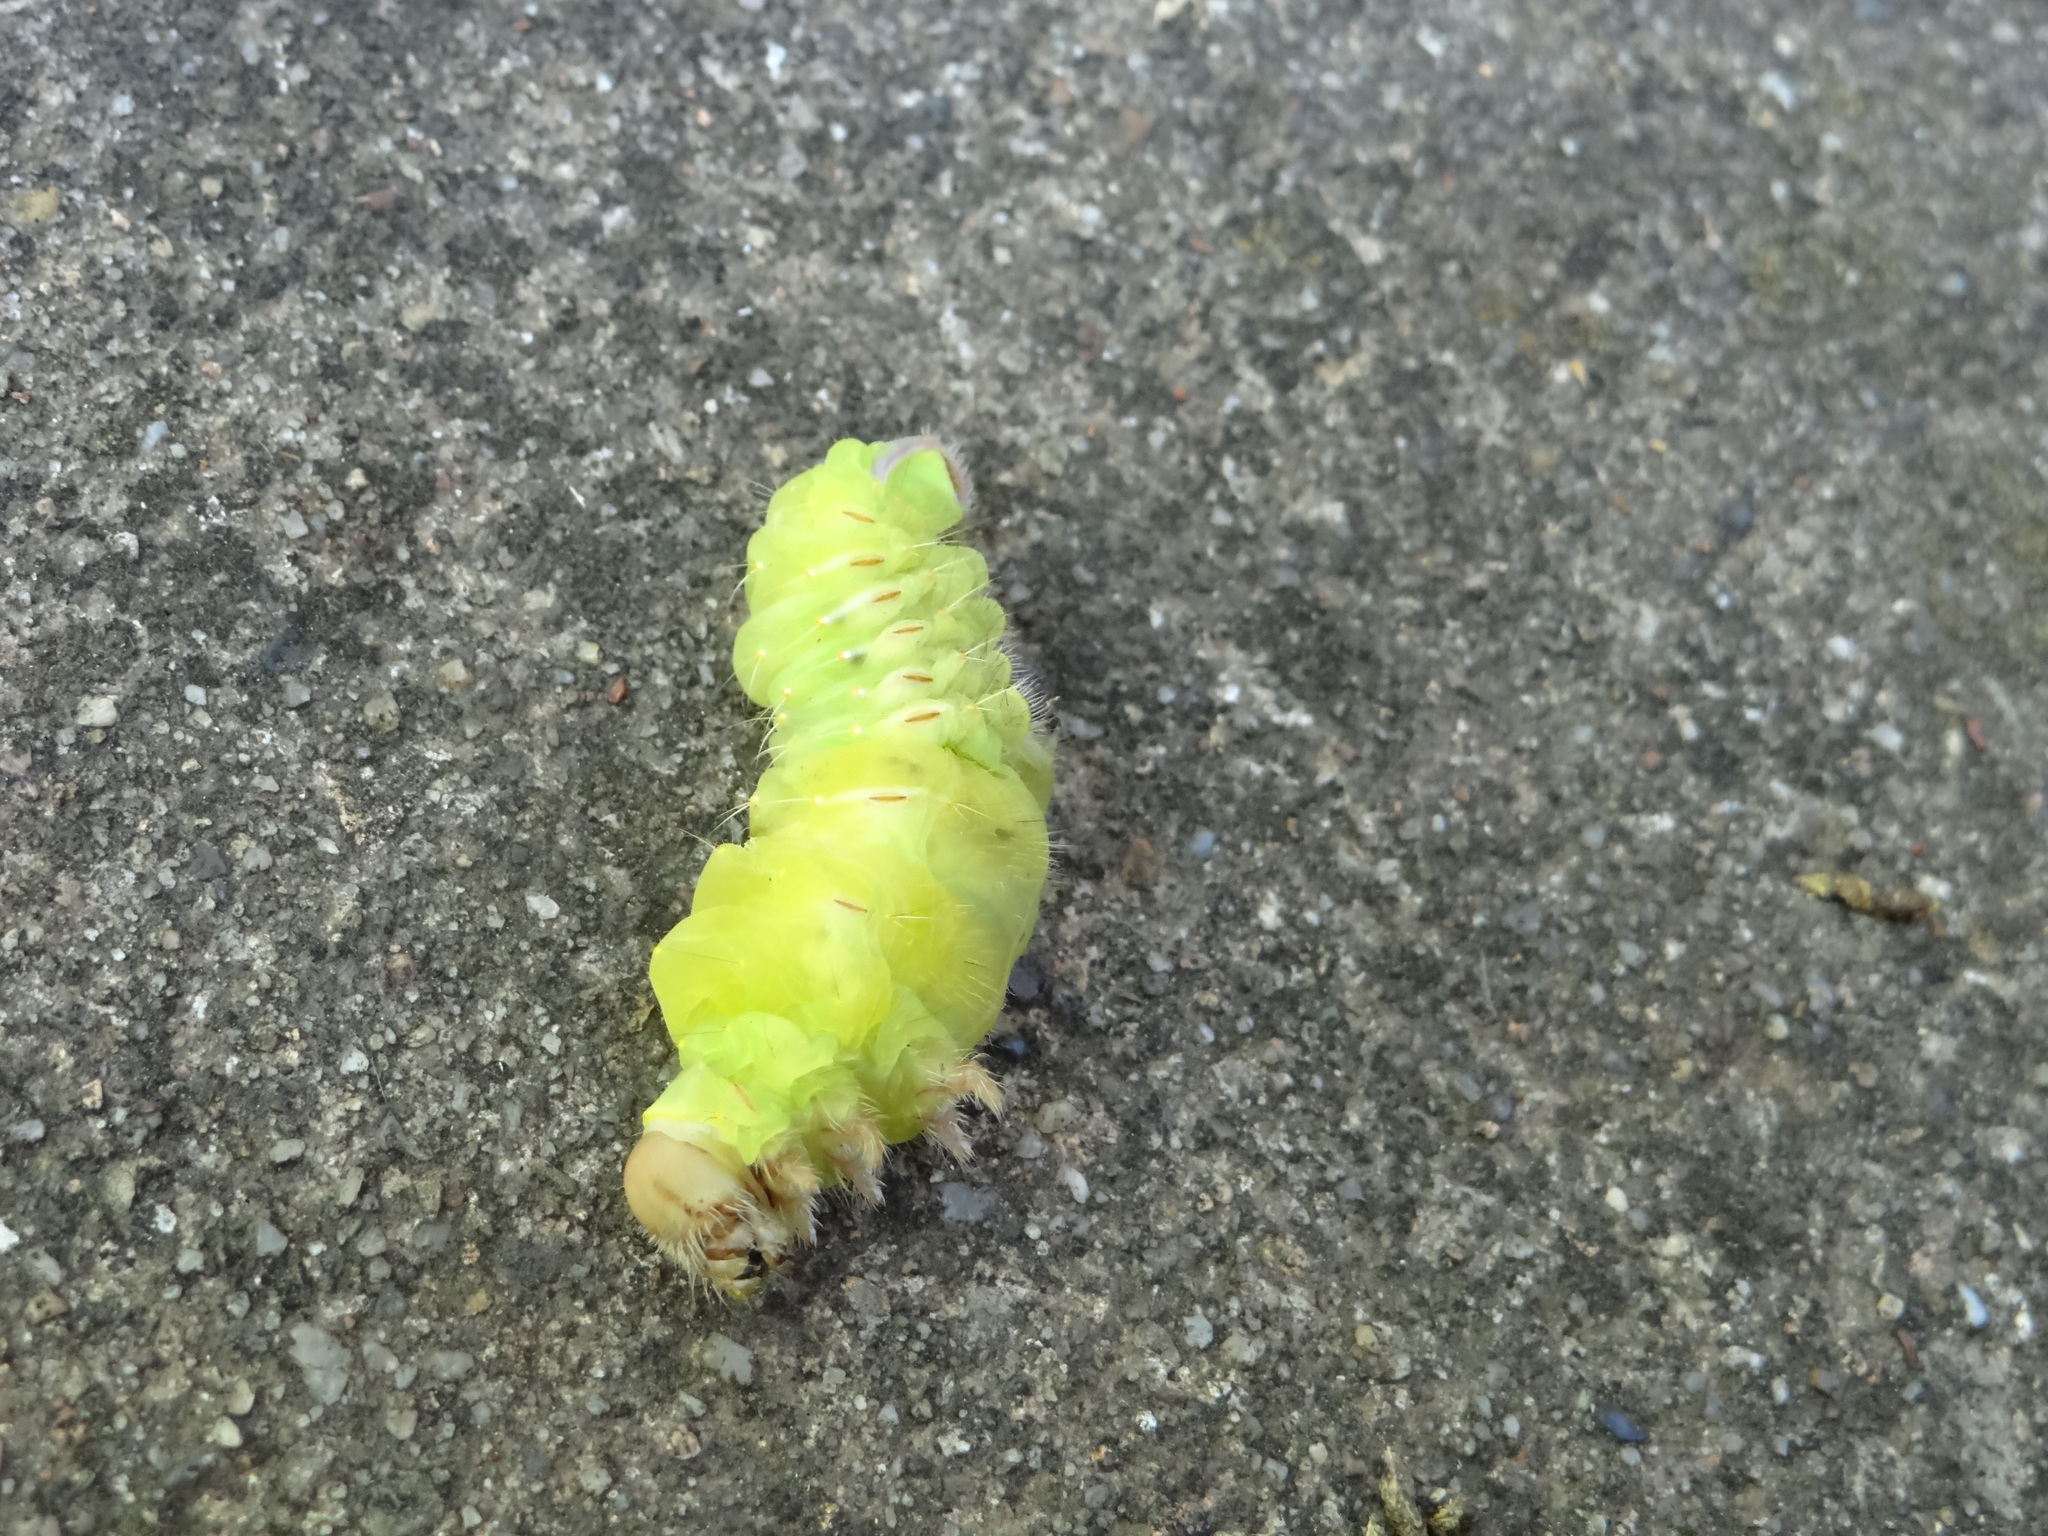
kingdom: Animalia
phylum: Arthropoda
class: Insecta
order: Lepidoptera
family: Saturniidae
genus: Antheraea
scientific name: Antheraea polyphemus
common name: Polyphemus moth
